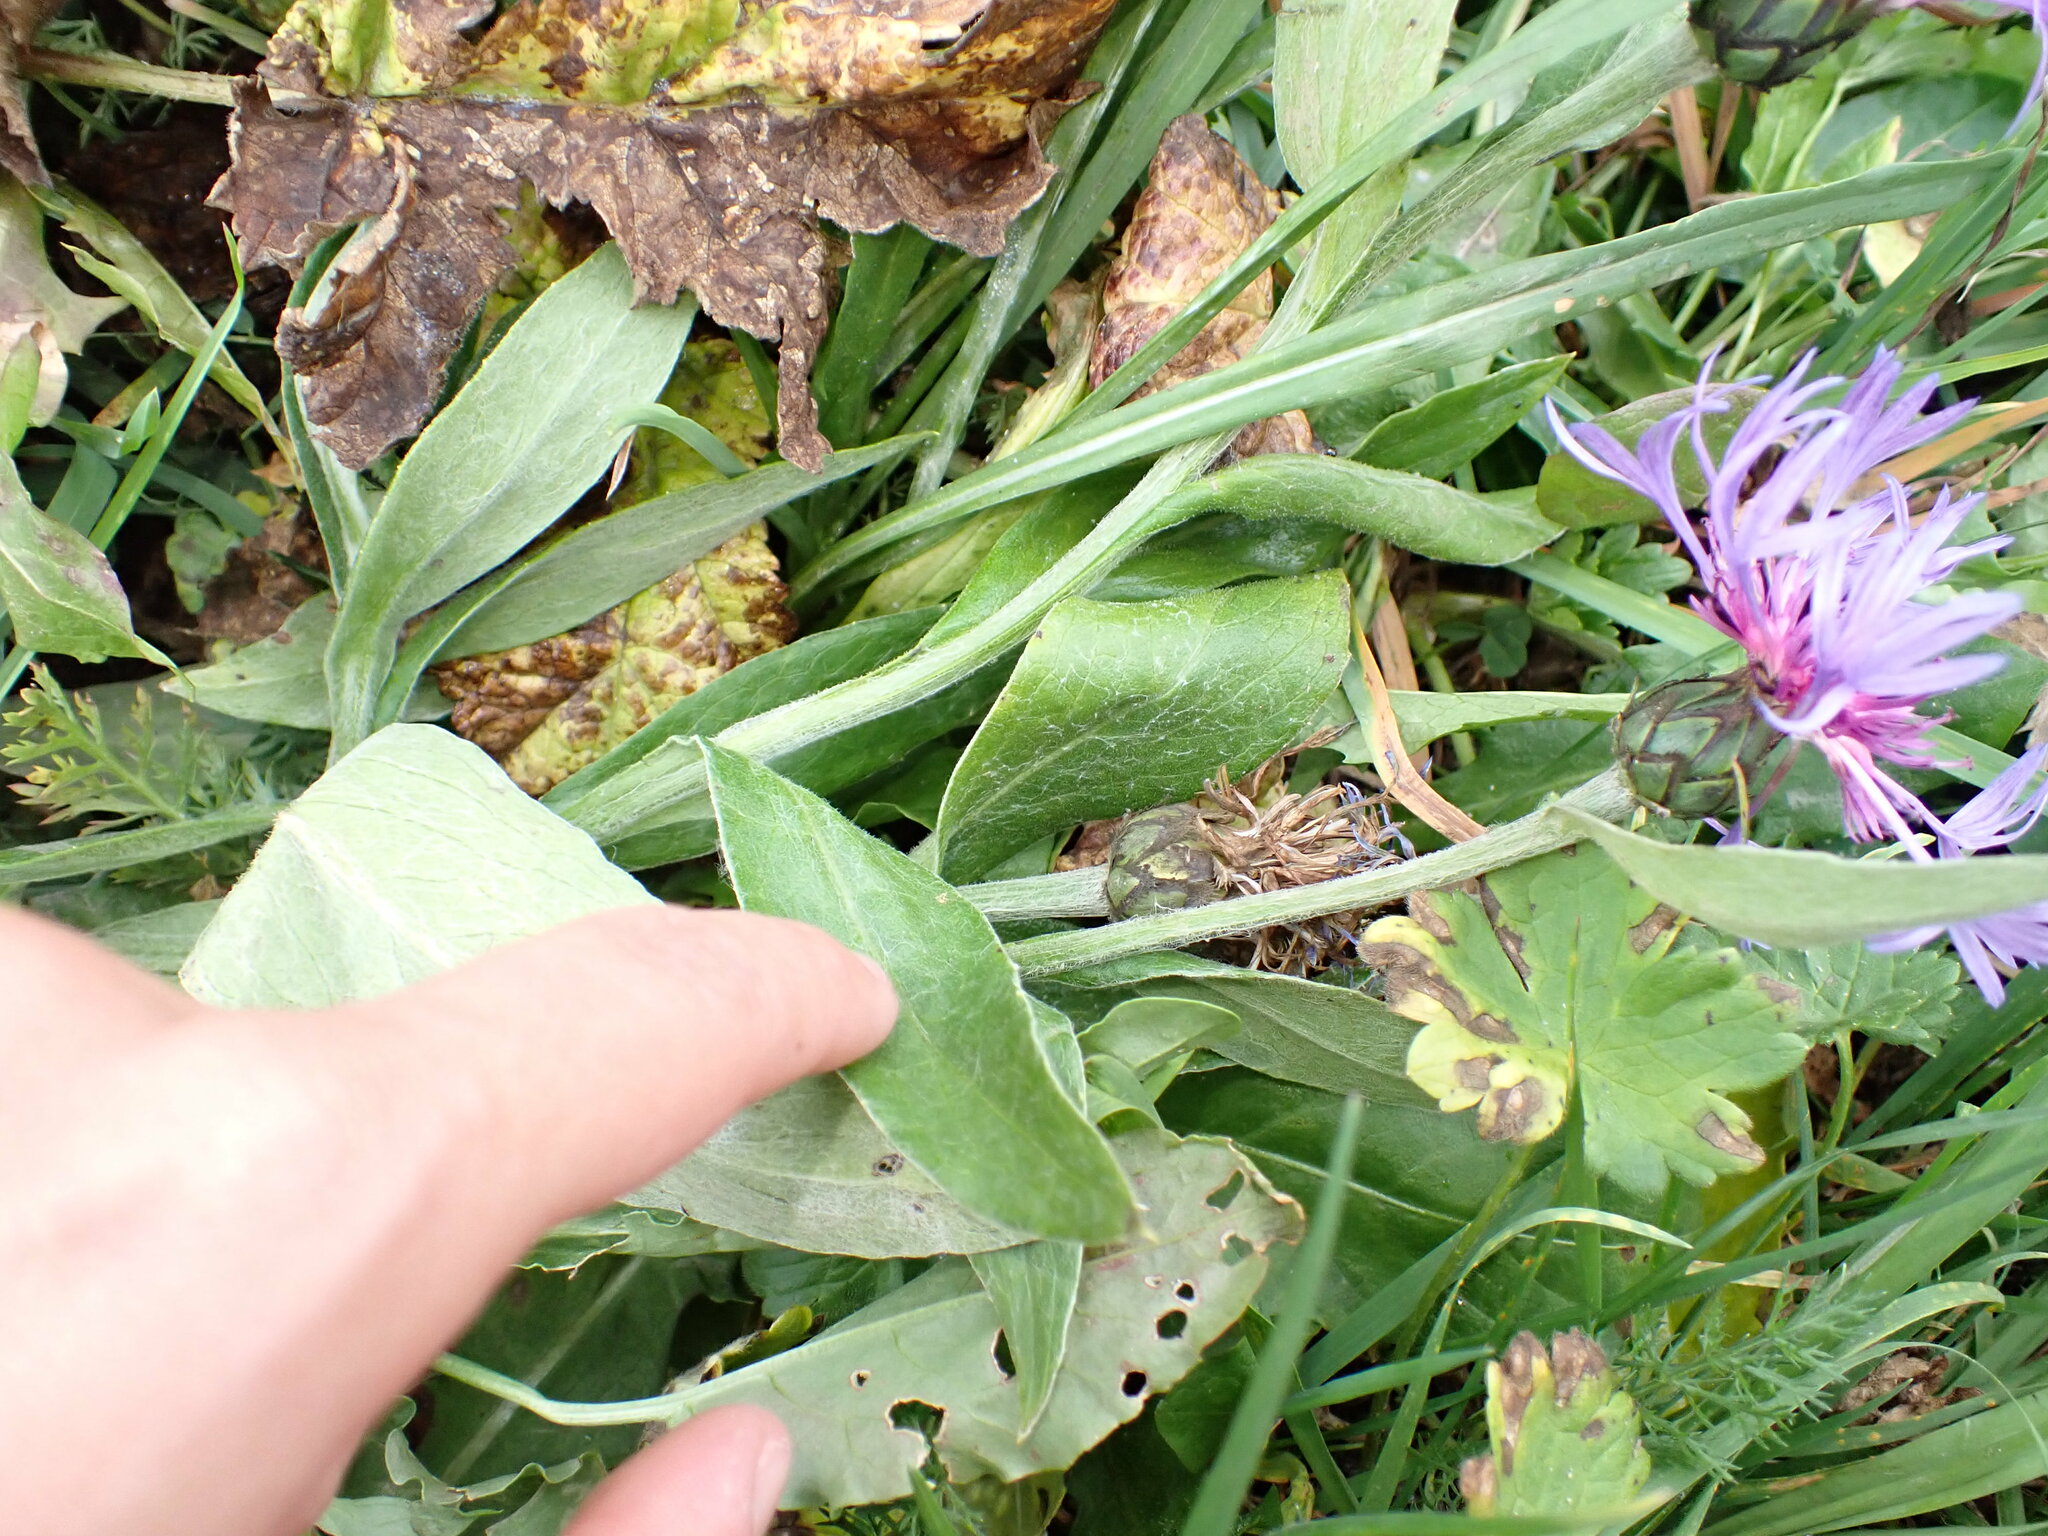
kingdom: Plantae
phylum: Tracheophyta
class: Magnoliopsida
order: Asterales
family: Asteraceae
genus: Centaurea
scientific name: Centaurea montana
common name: Perennial cornflower
